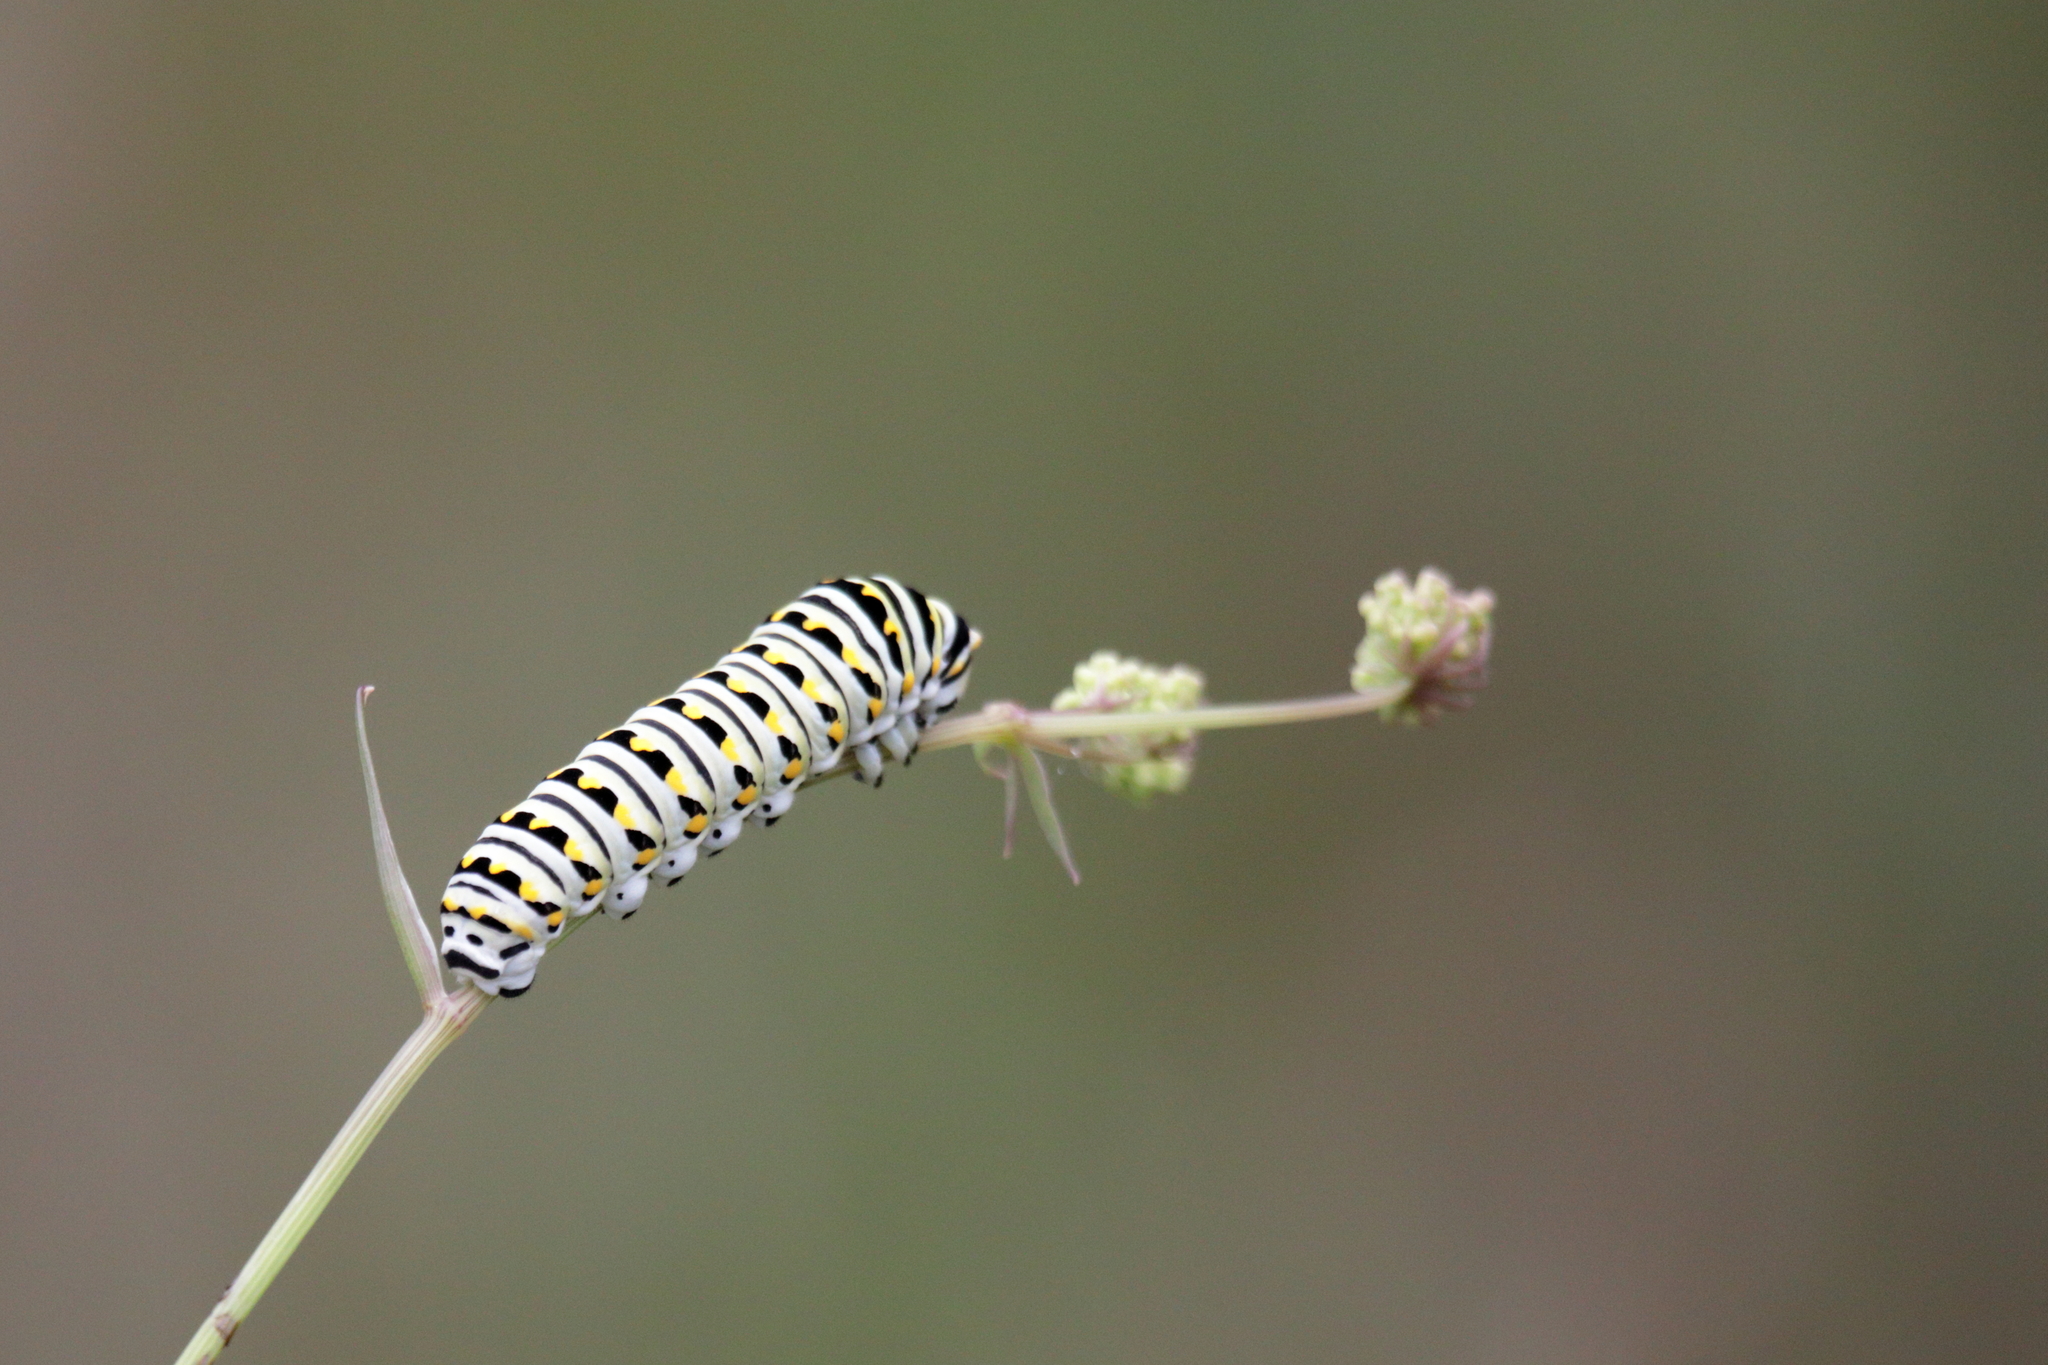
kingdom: Animalia
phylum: Arthropoda
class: Insecta
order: Lepidoptera
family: Papilionidae
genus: Papilio
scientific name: Papilio polyxenes
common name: Black swallowtail
